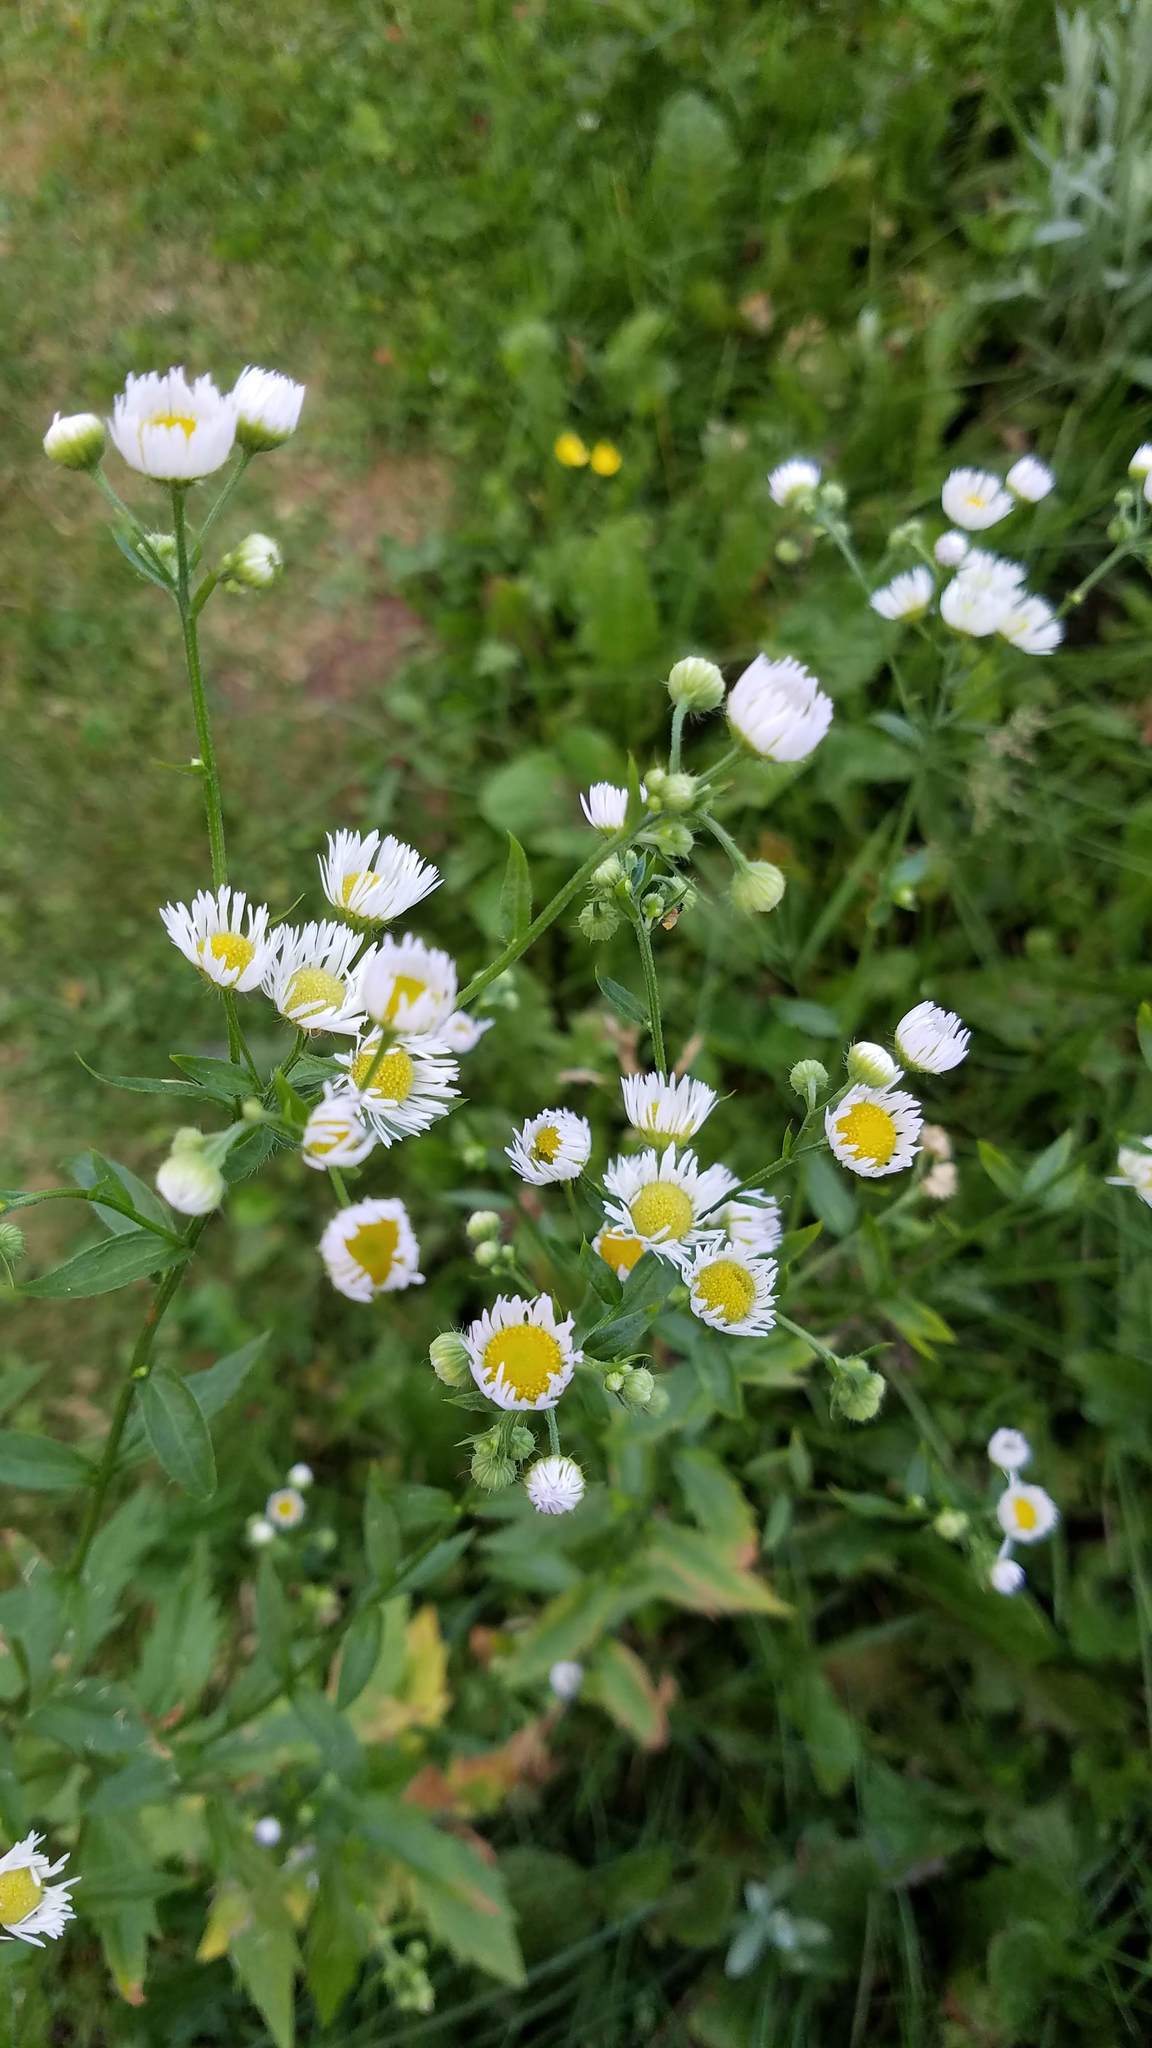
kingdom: Plantae
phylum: Tracheophyta
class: Magnoliopsida
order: Asterales
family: Asteraceae
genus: Erigeron
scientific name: Erigeron annuus
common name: Tall fleabane
